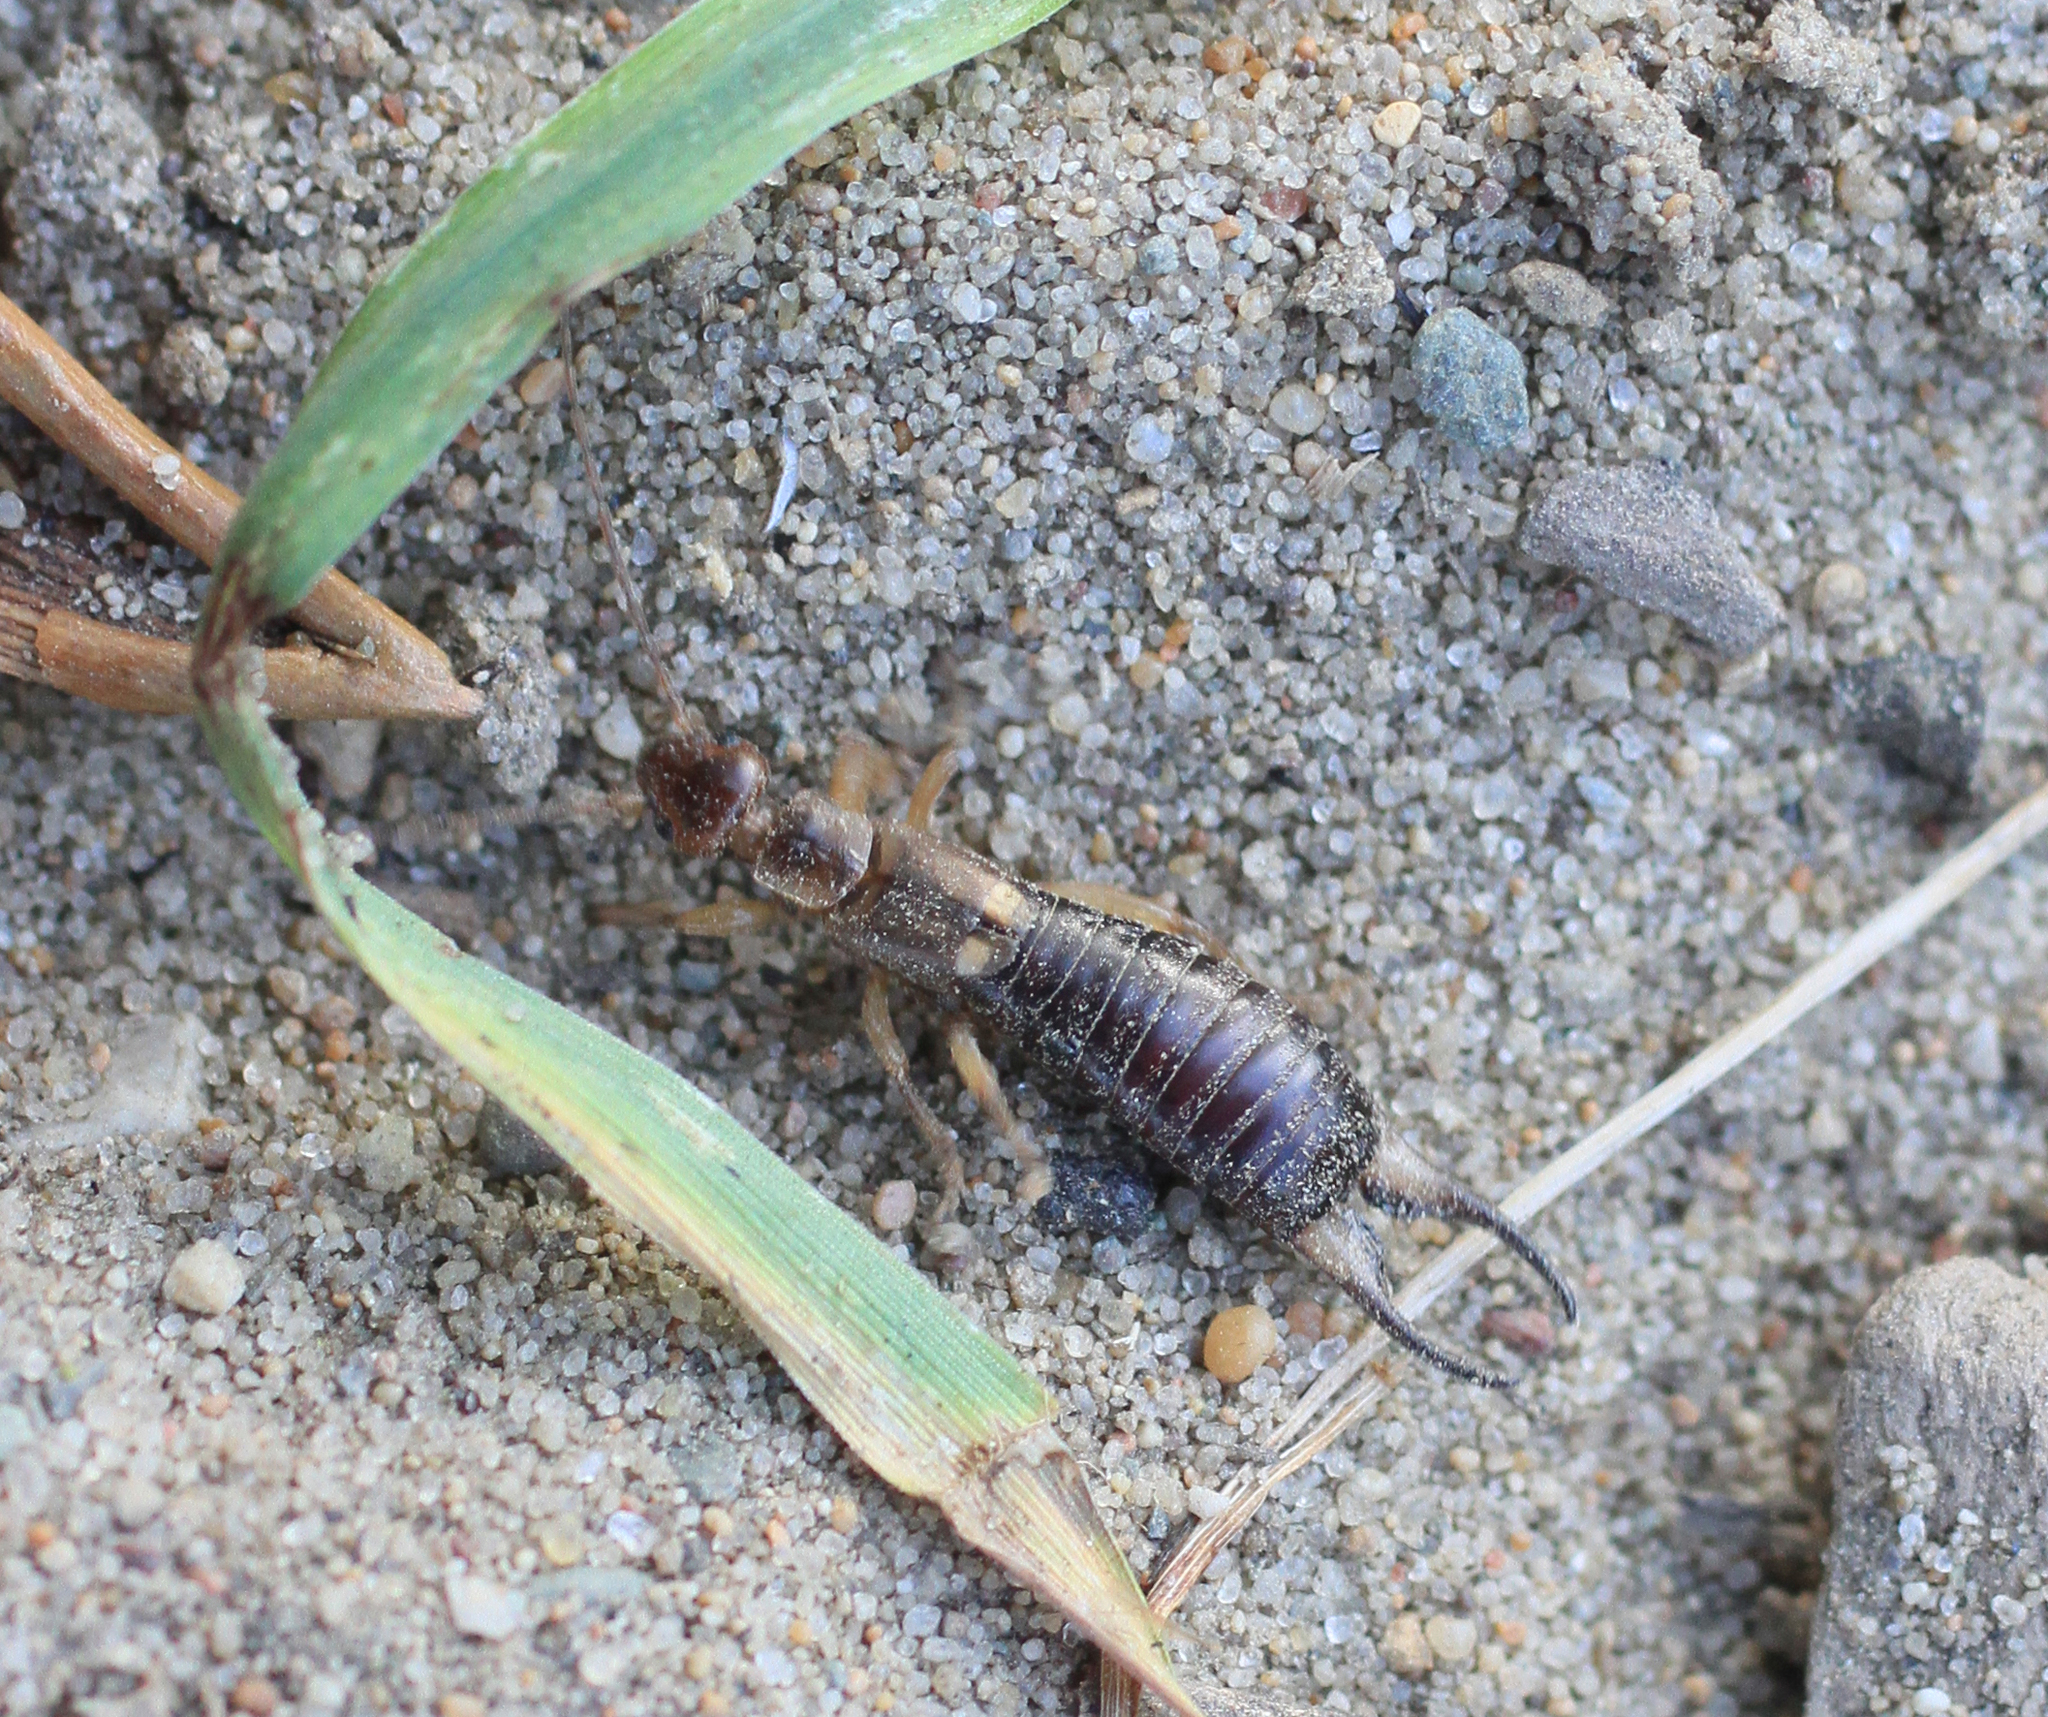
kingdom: Animalia
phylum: Arthropoda
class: Insecta
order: Dermaptera
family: Forficulidae
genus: Forficula
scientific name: Forficula
